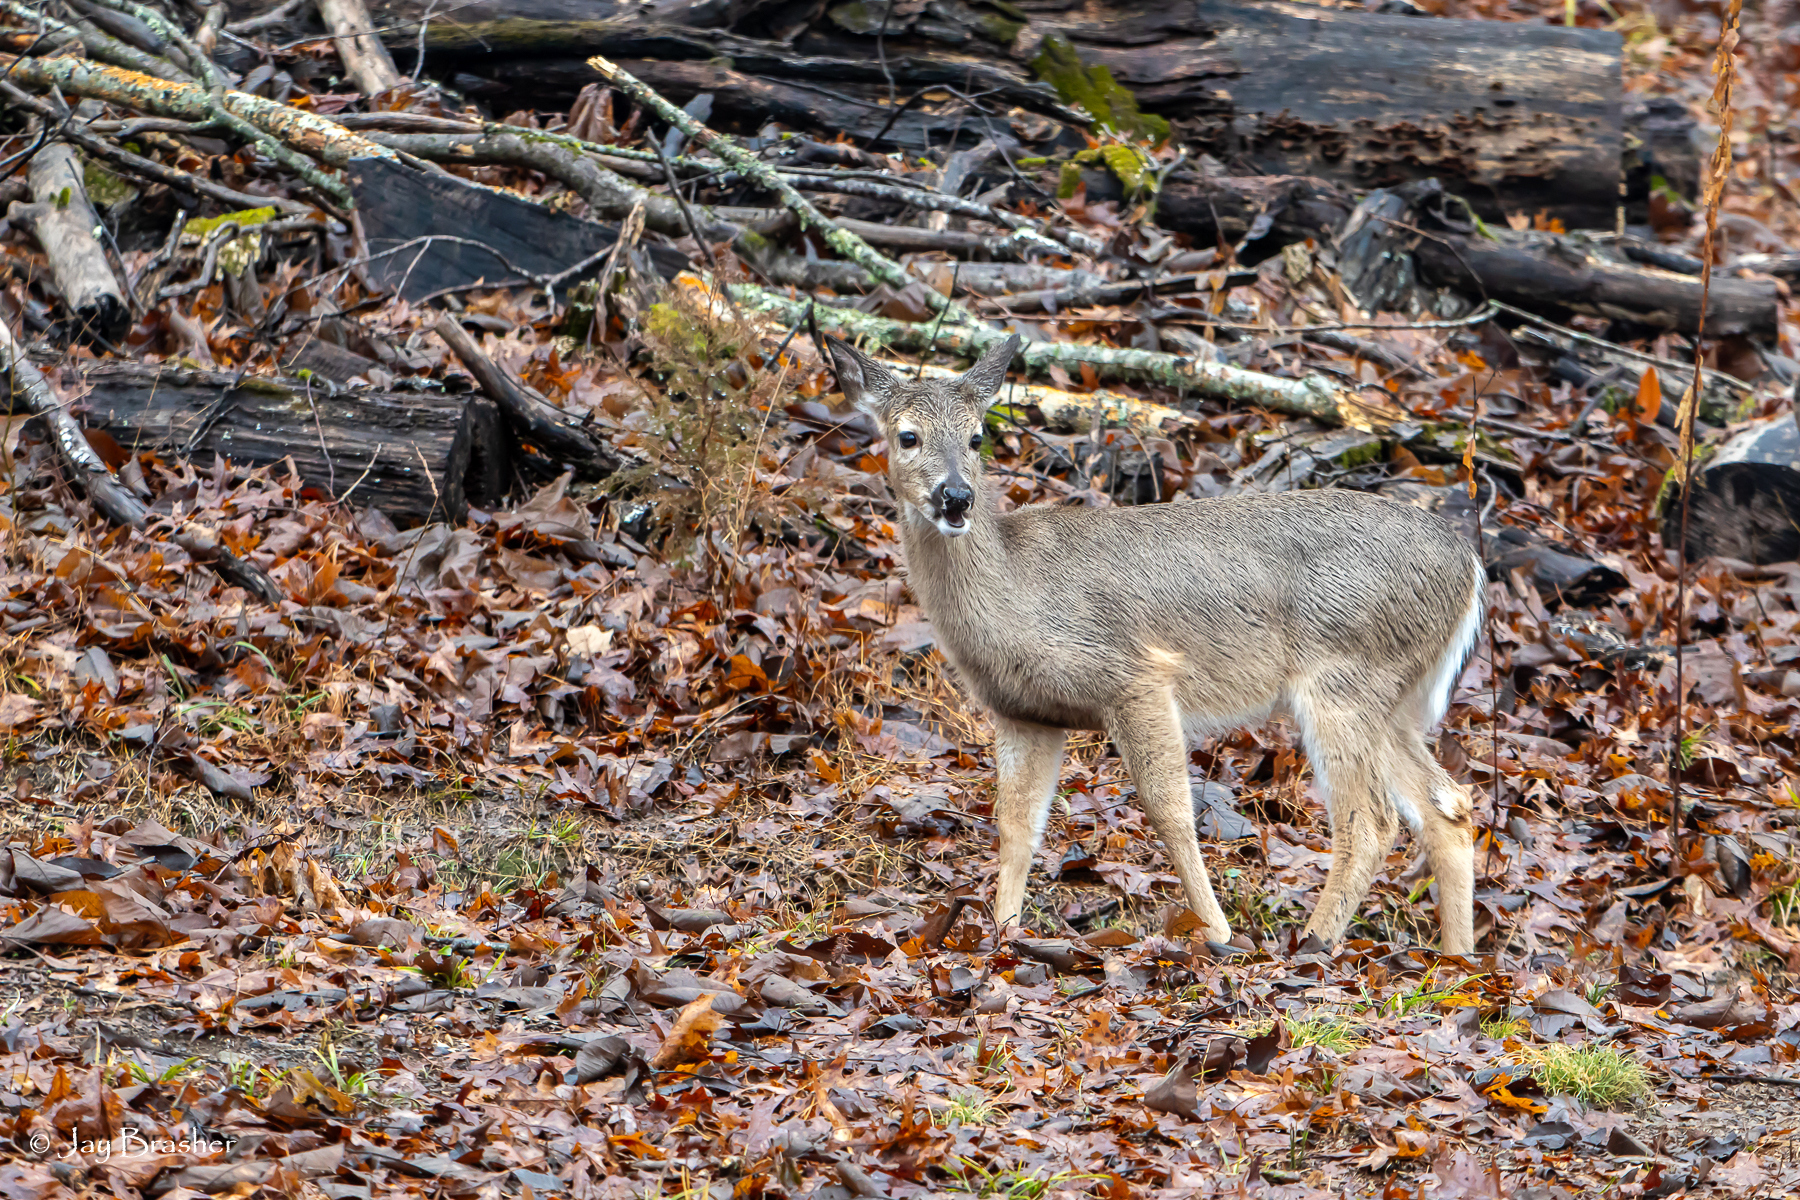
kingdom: Animalia
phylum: Chordata
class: Mammalia
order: Artiodactyla
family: Cervidae
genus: Odocoileus
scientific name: Odocoileus virginianus
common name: White-tailed deer
